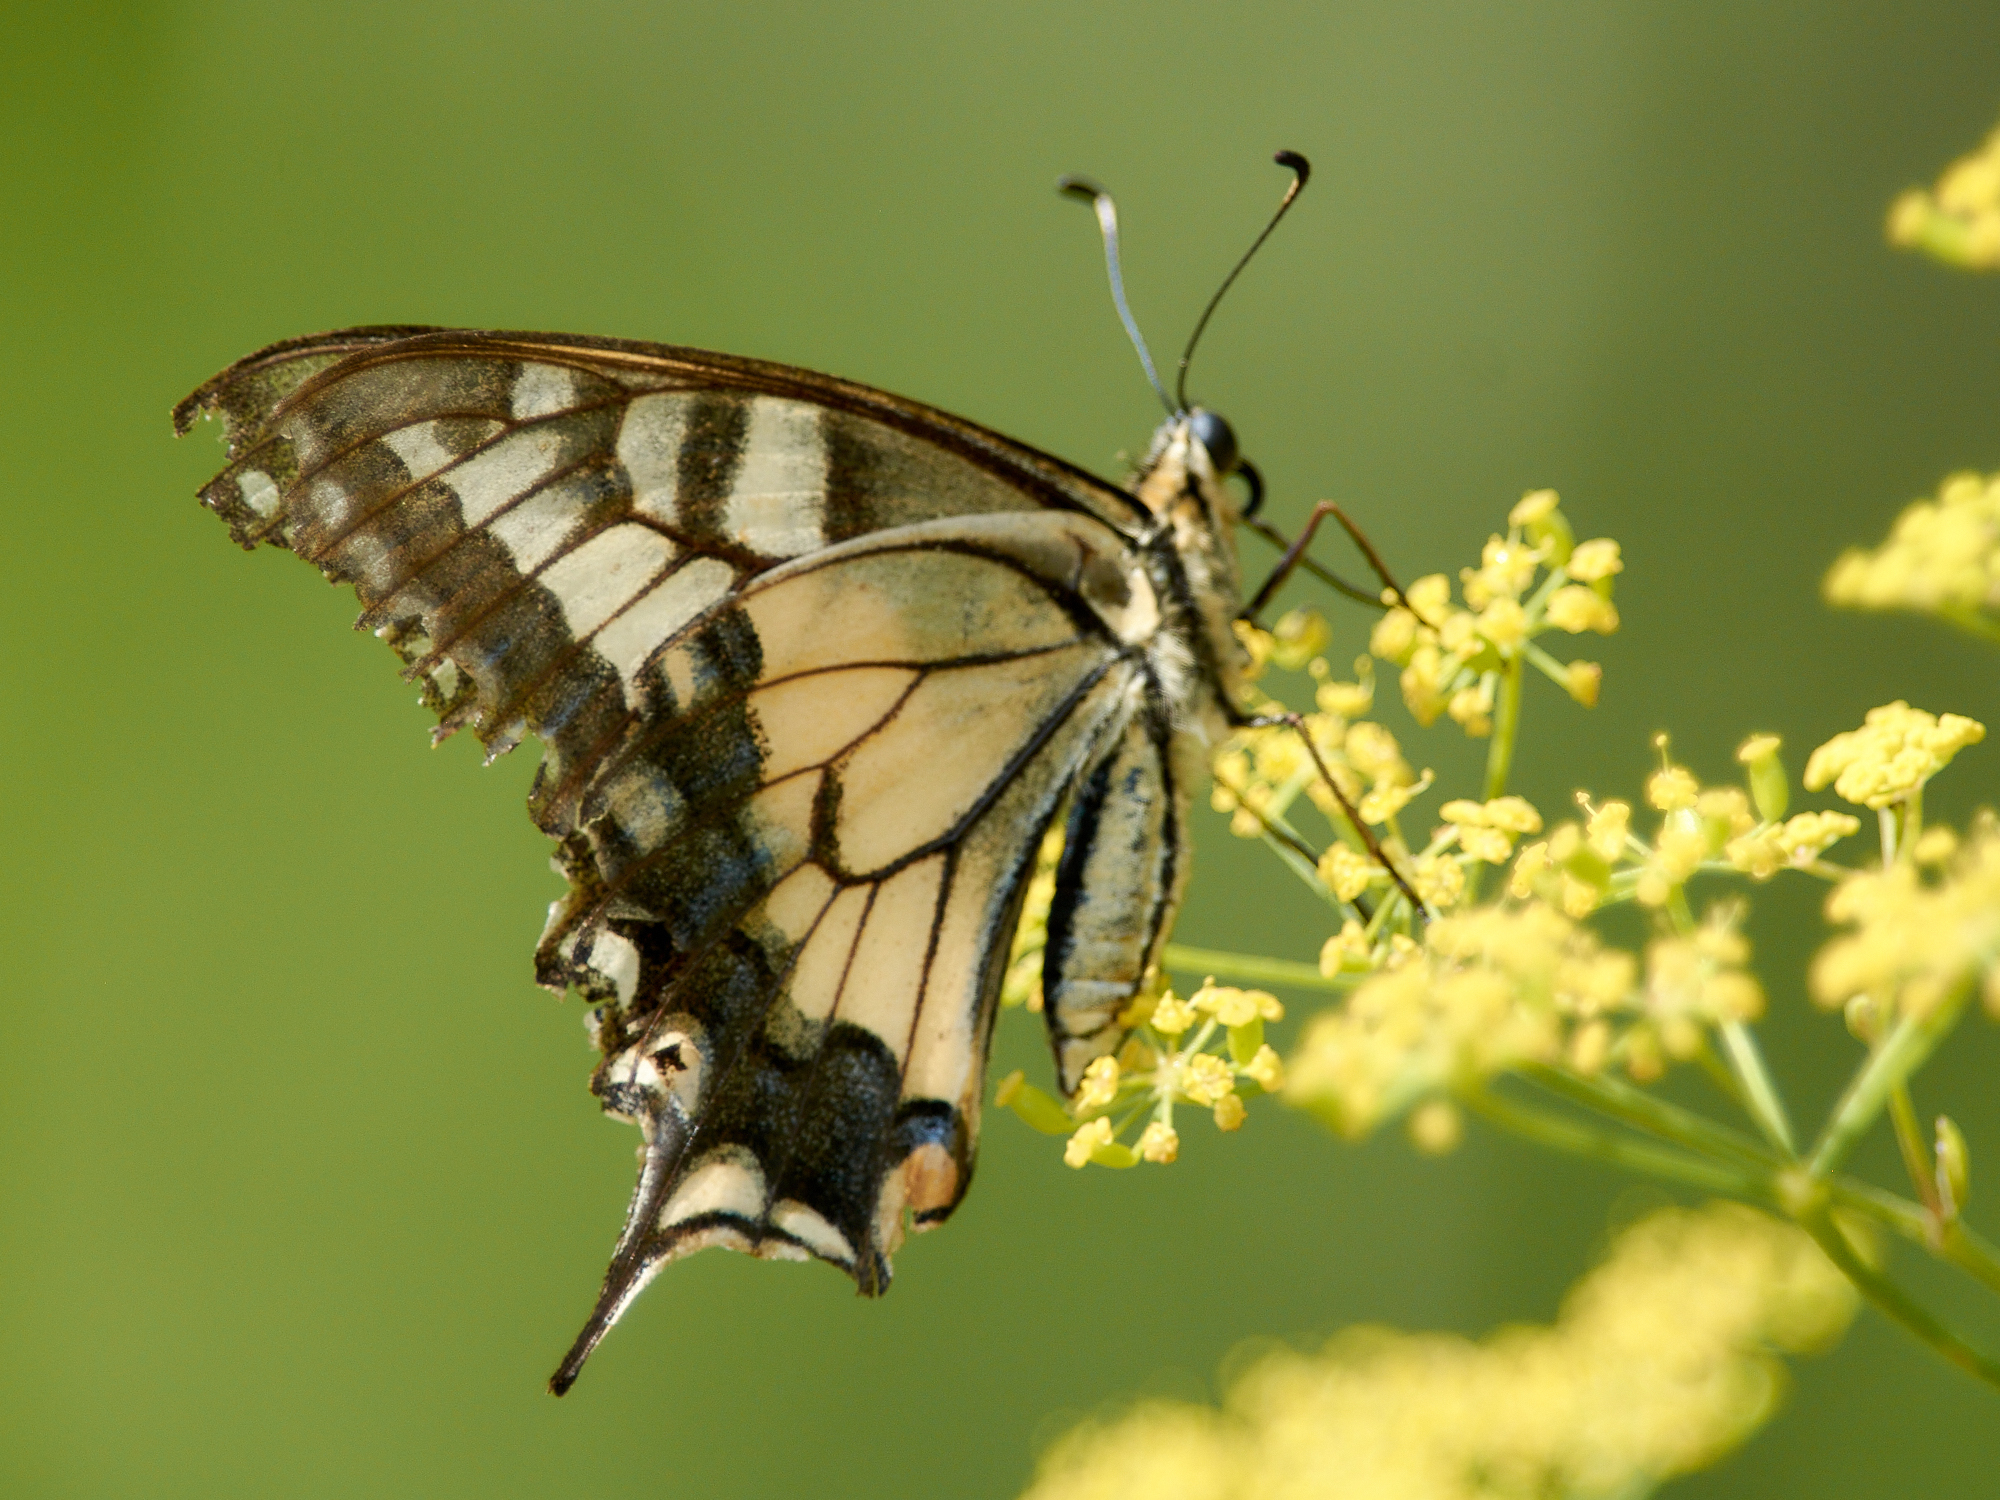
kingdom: Animalia
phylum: Arthropoda
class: Insecta
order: Lepidoptera
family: Papilionidae
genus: Papilio
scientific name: Papilio machaon
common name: Swallowtail
